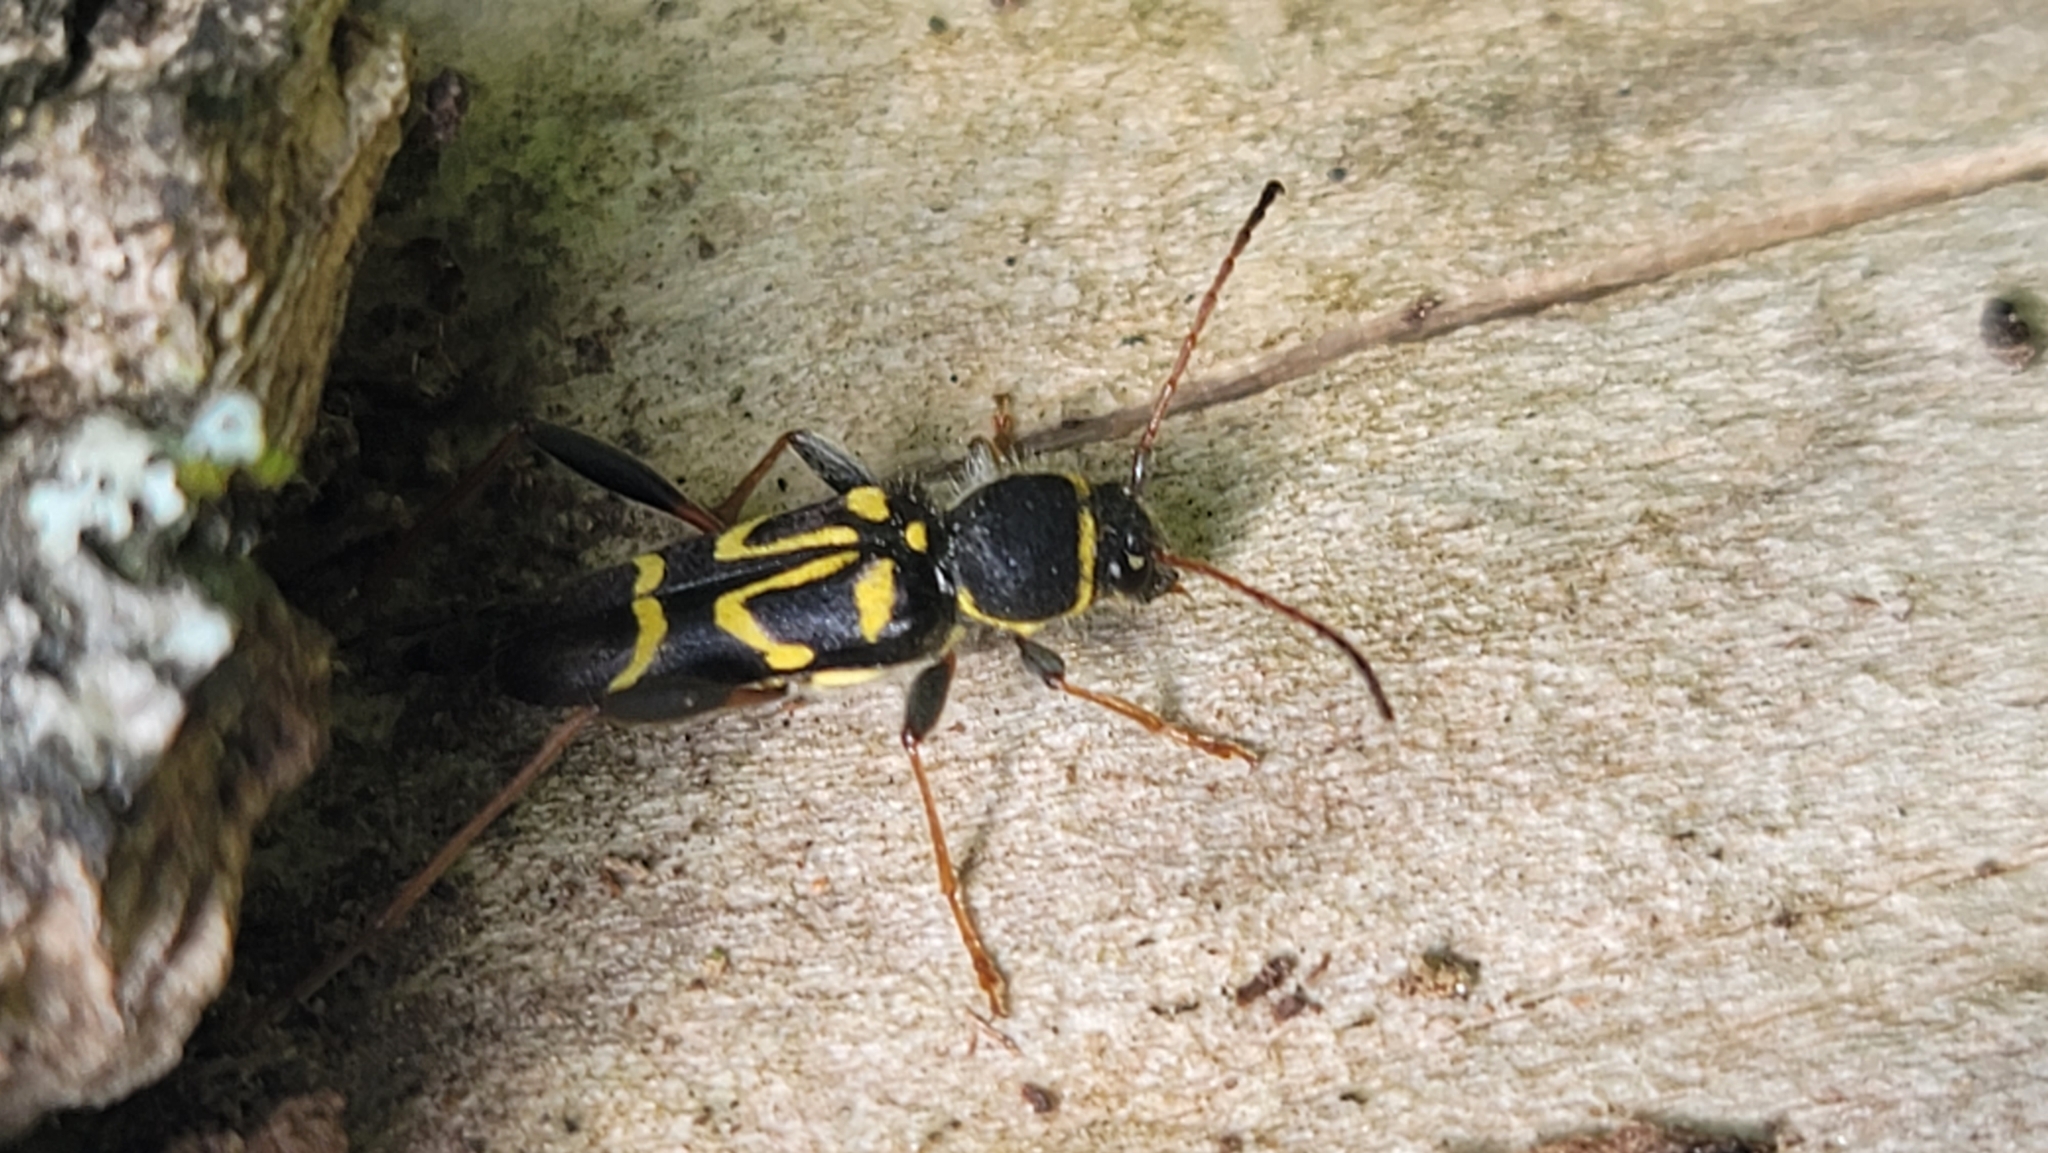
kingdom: Animalia
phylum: Arthropoda
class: Insecta
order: Coleoptera
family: Cerambycidae
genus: Clytus
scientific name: Clytus ruricola
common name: Round-necked longhorn beetle
